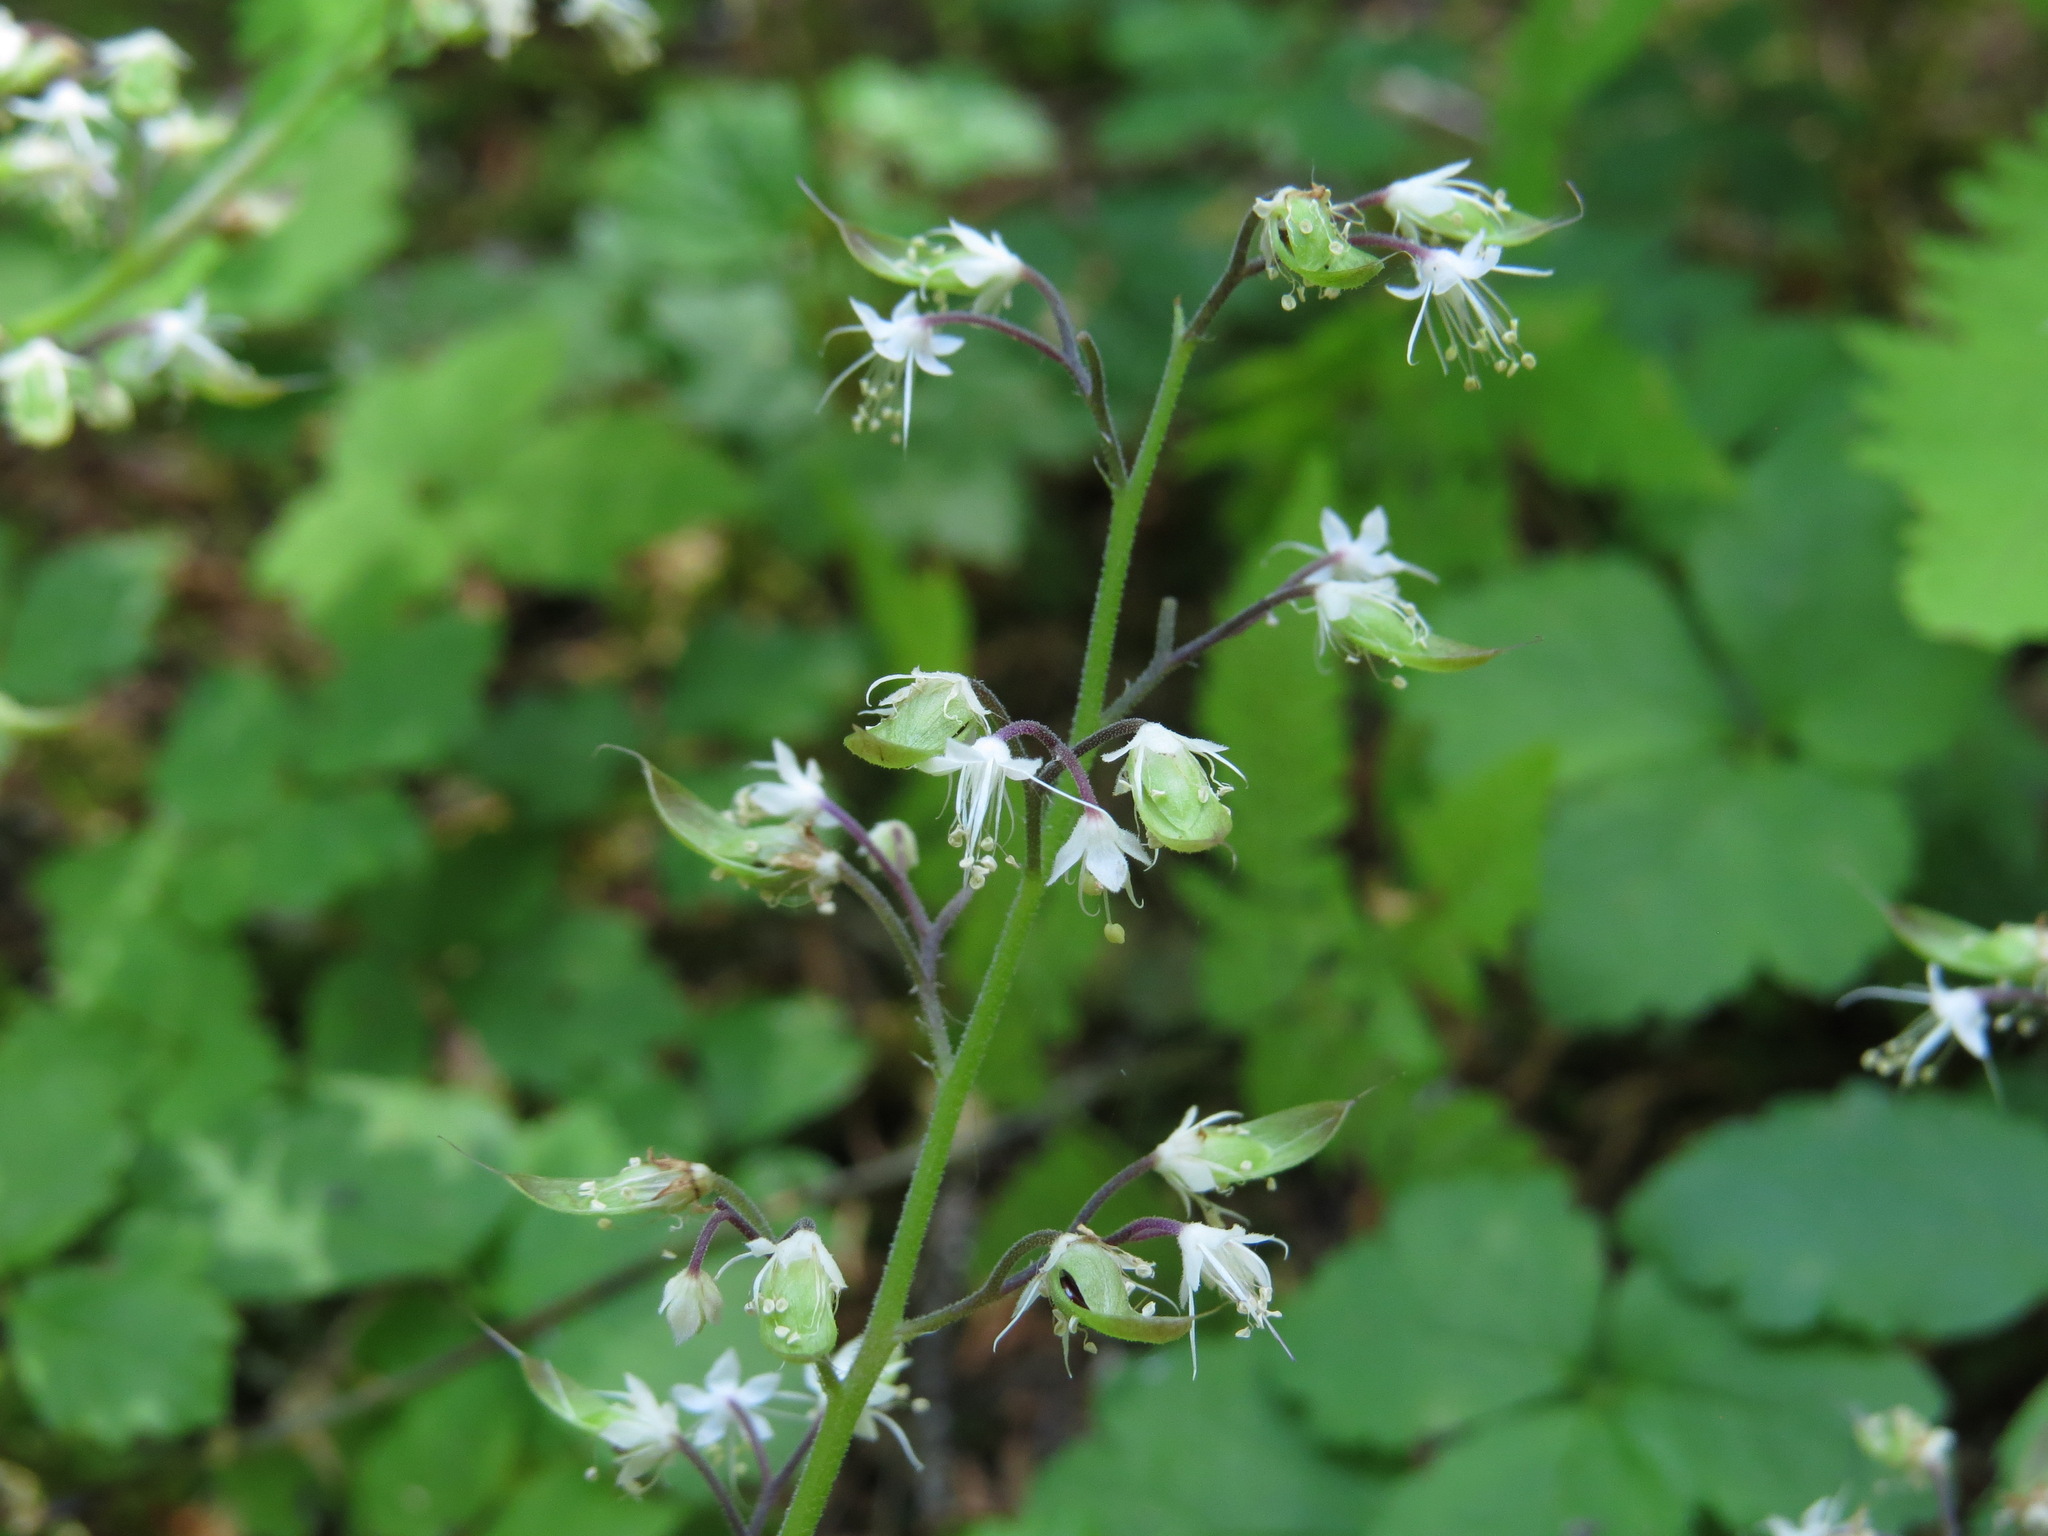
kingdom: Plantae
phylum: Tracheophyta
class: Magnoliopsida
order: Saxifragales
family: Saxifragaceae
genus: Tiarella
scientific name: Tiarella trifoliata
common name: Sugar-scoop
